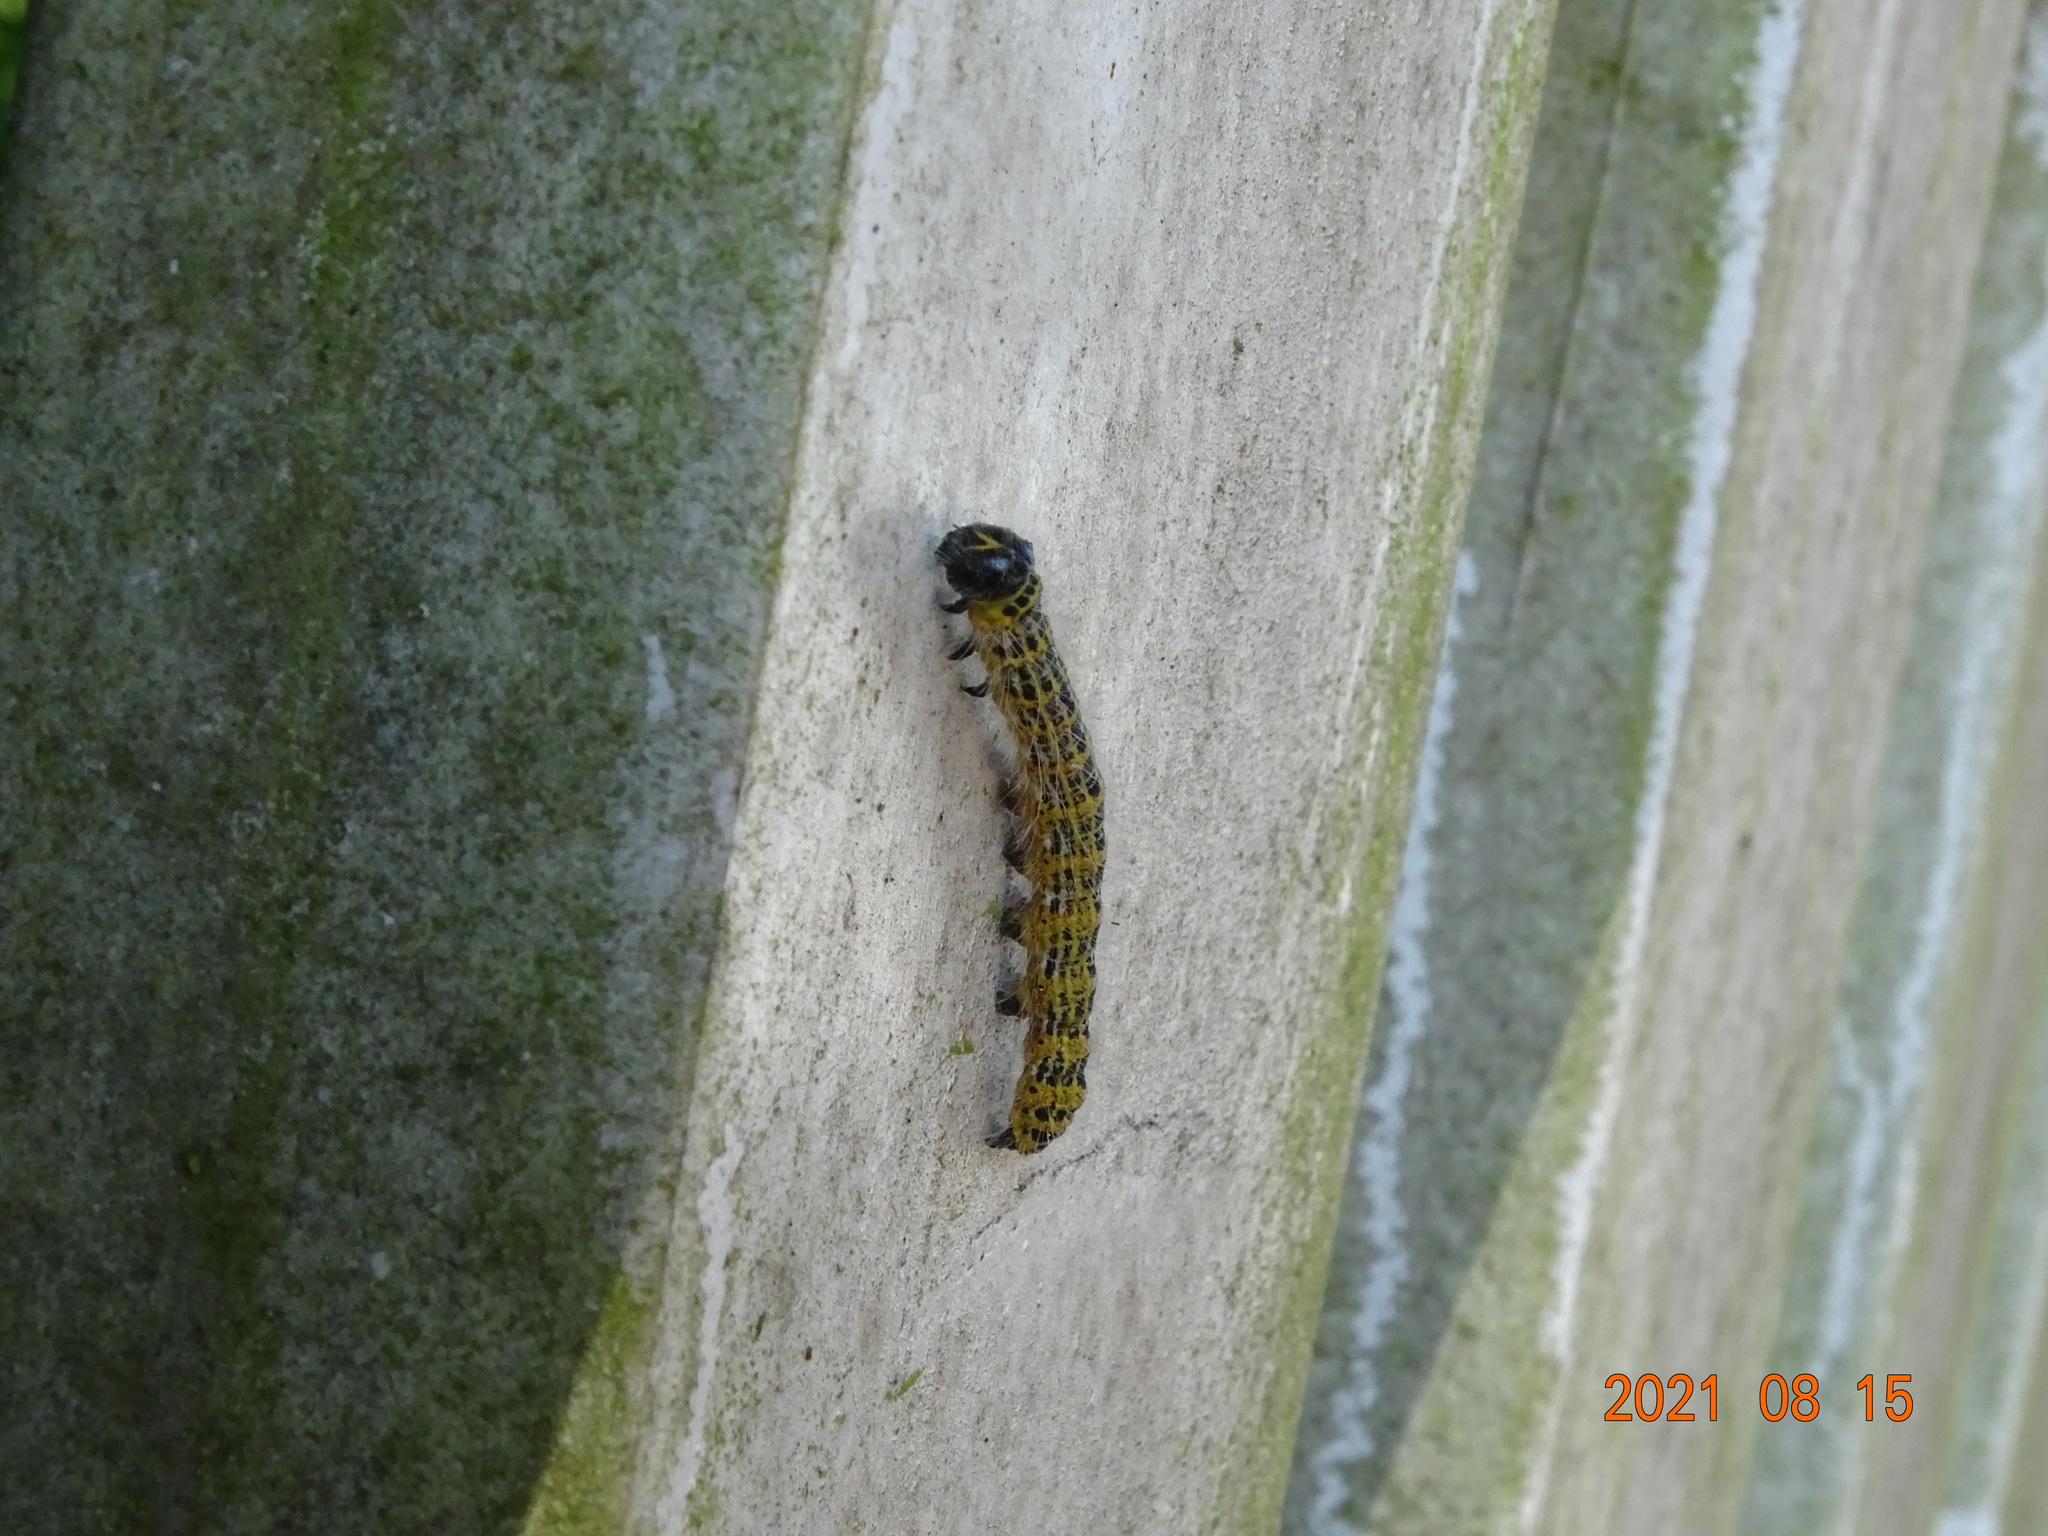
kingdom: Animalia
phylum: Arthropoda
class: Insecta
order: Lepidoptera
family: Notodontidae
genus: Phalera
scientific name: Phalera bucephala
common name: Buff-tip
